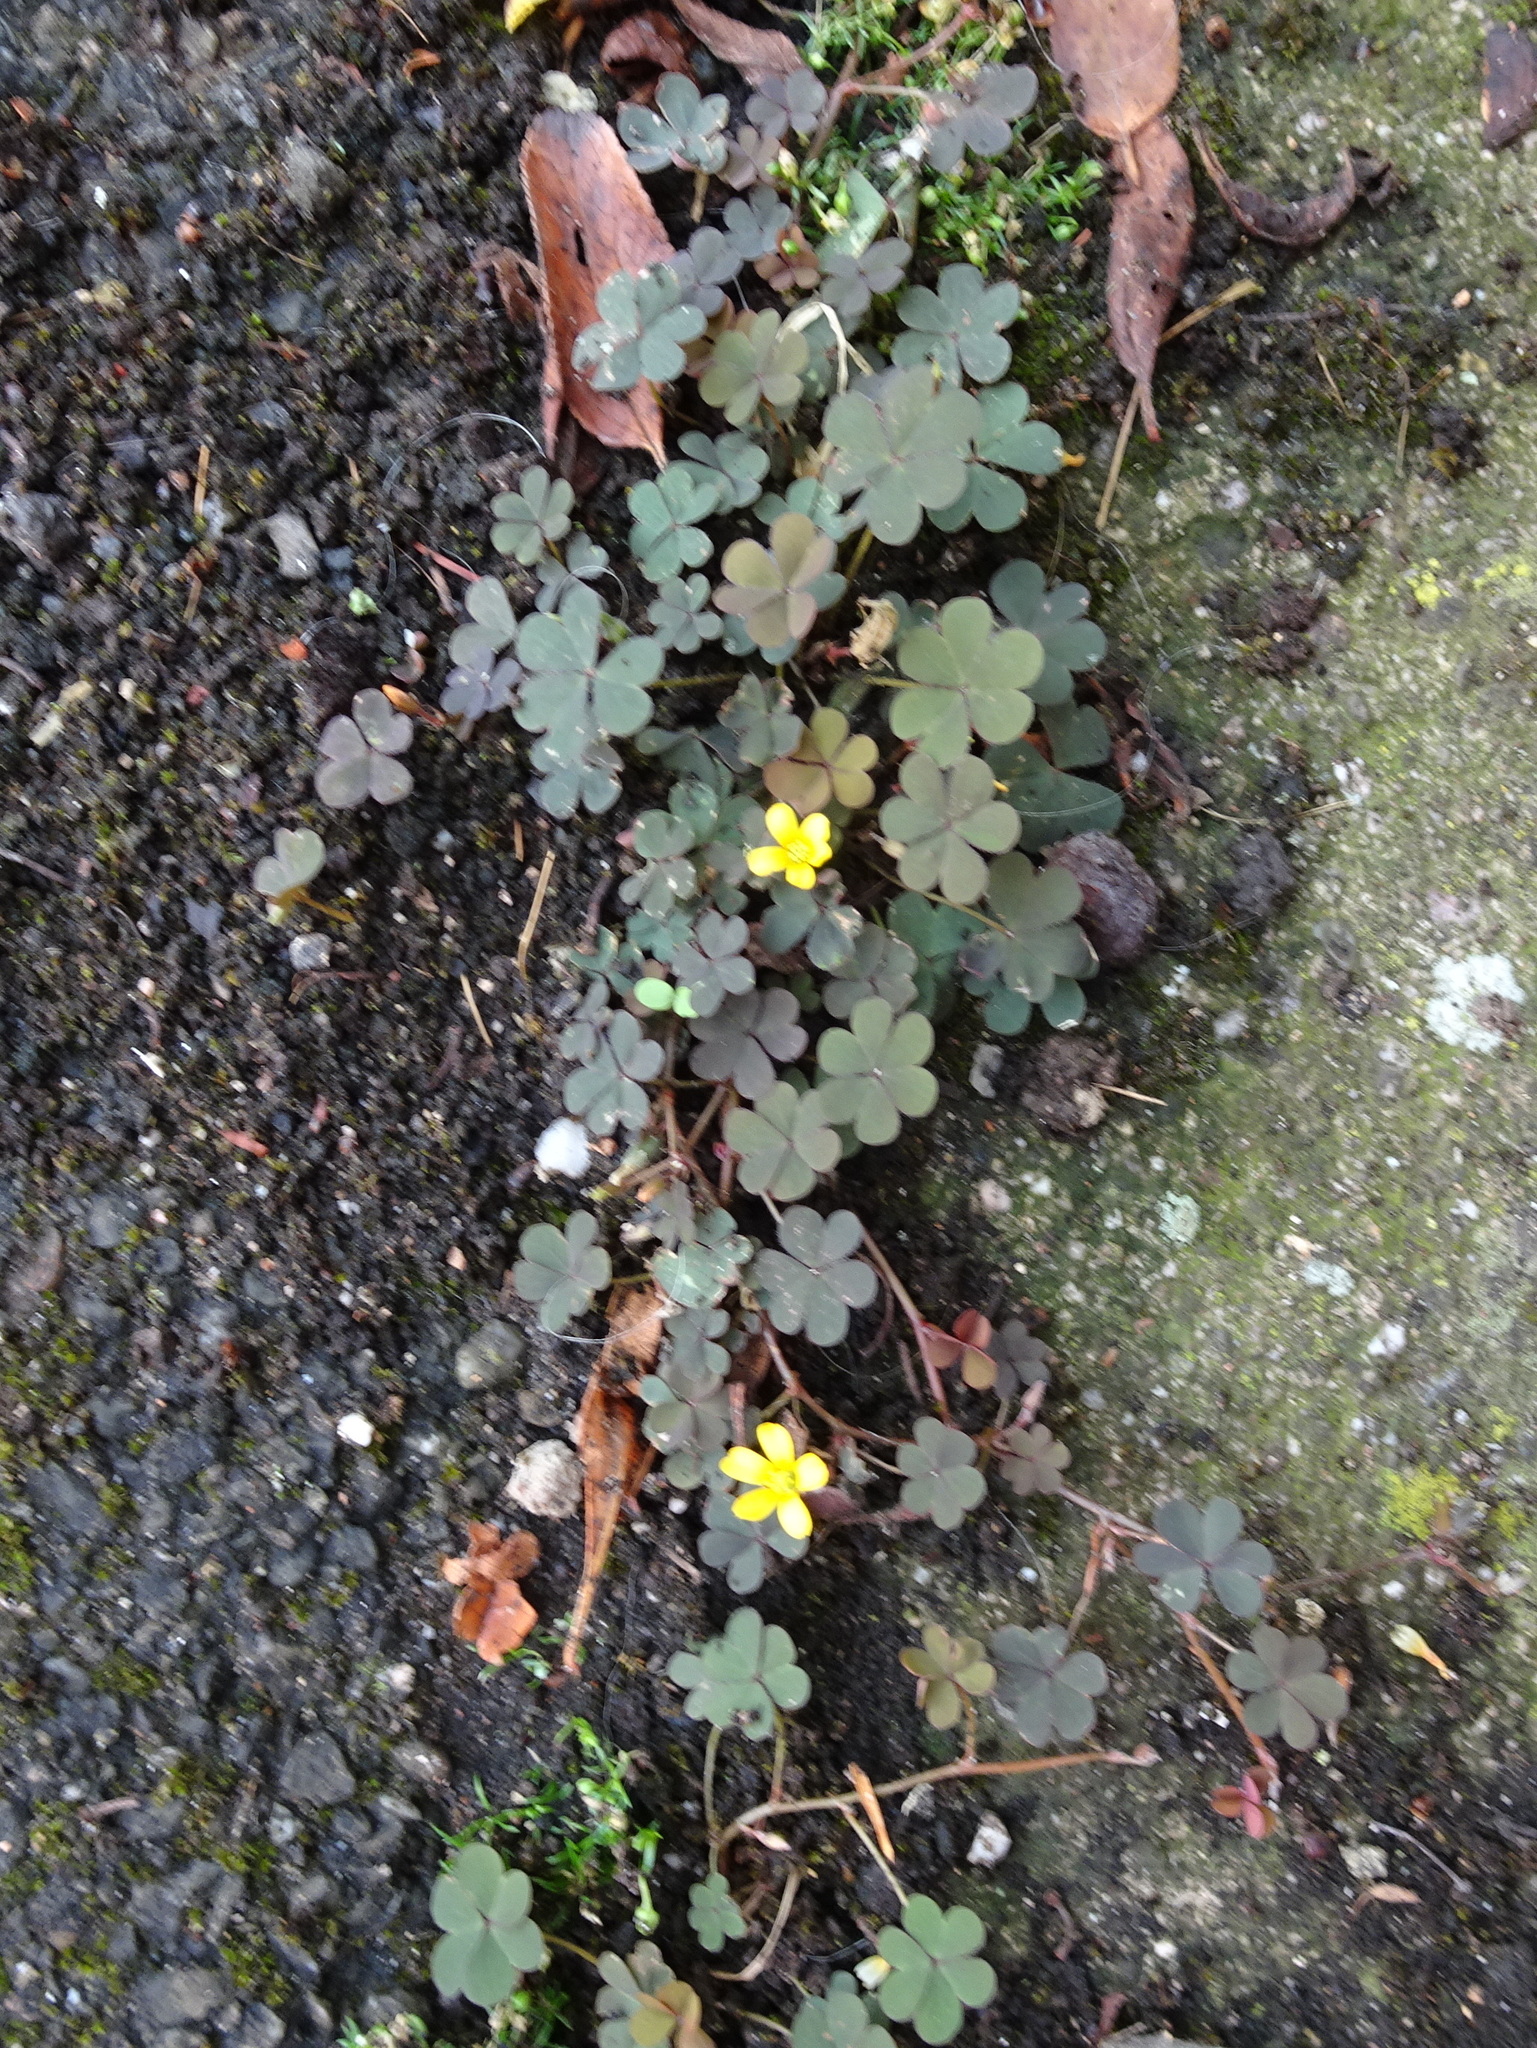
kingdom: Plantae
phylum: Tracheophyta
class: Magnoliopsida
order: Oxalidales
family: Oxalidaceae
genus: Oxalis
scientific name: Oxalis corniculata
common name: Procumbent yellow-sorrel
